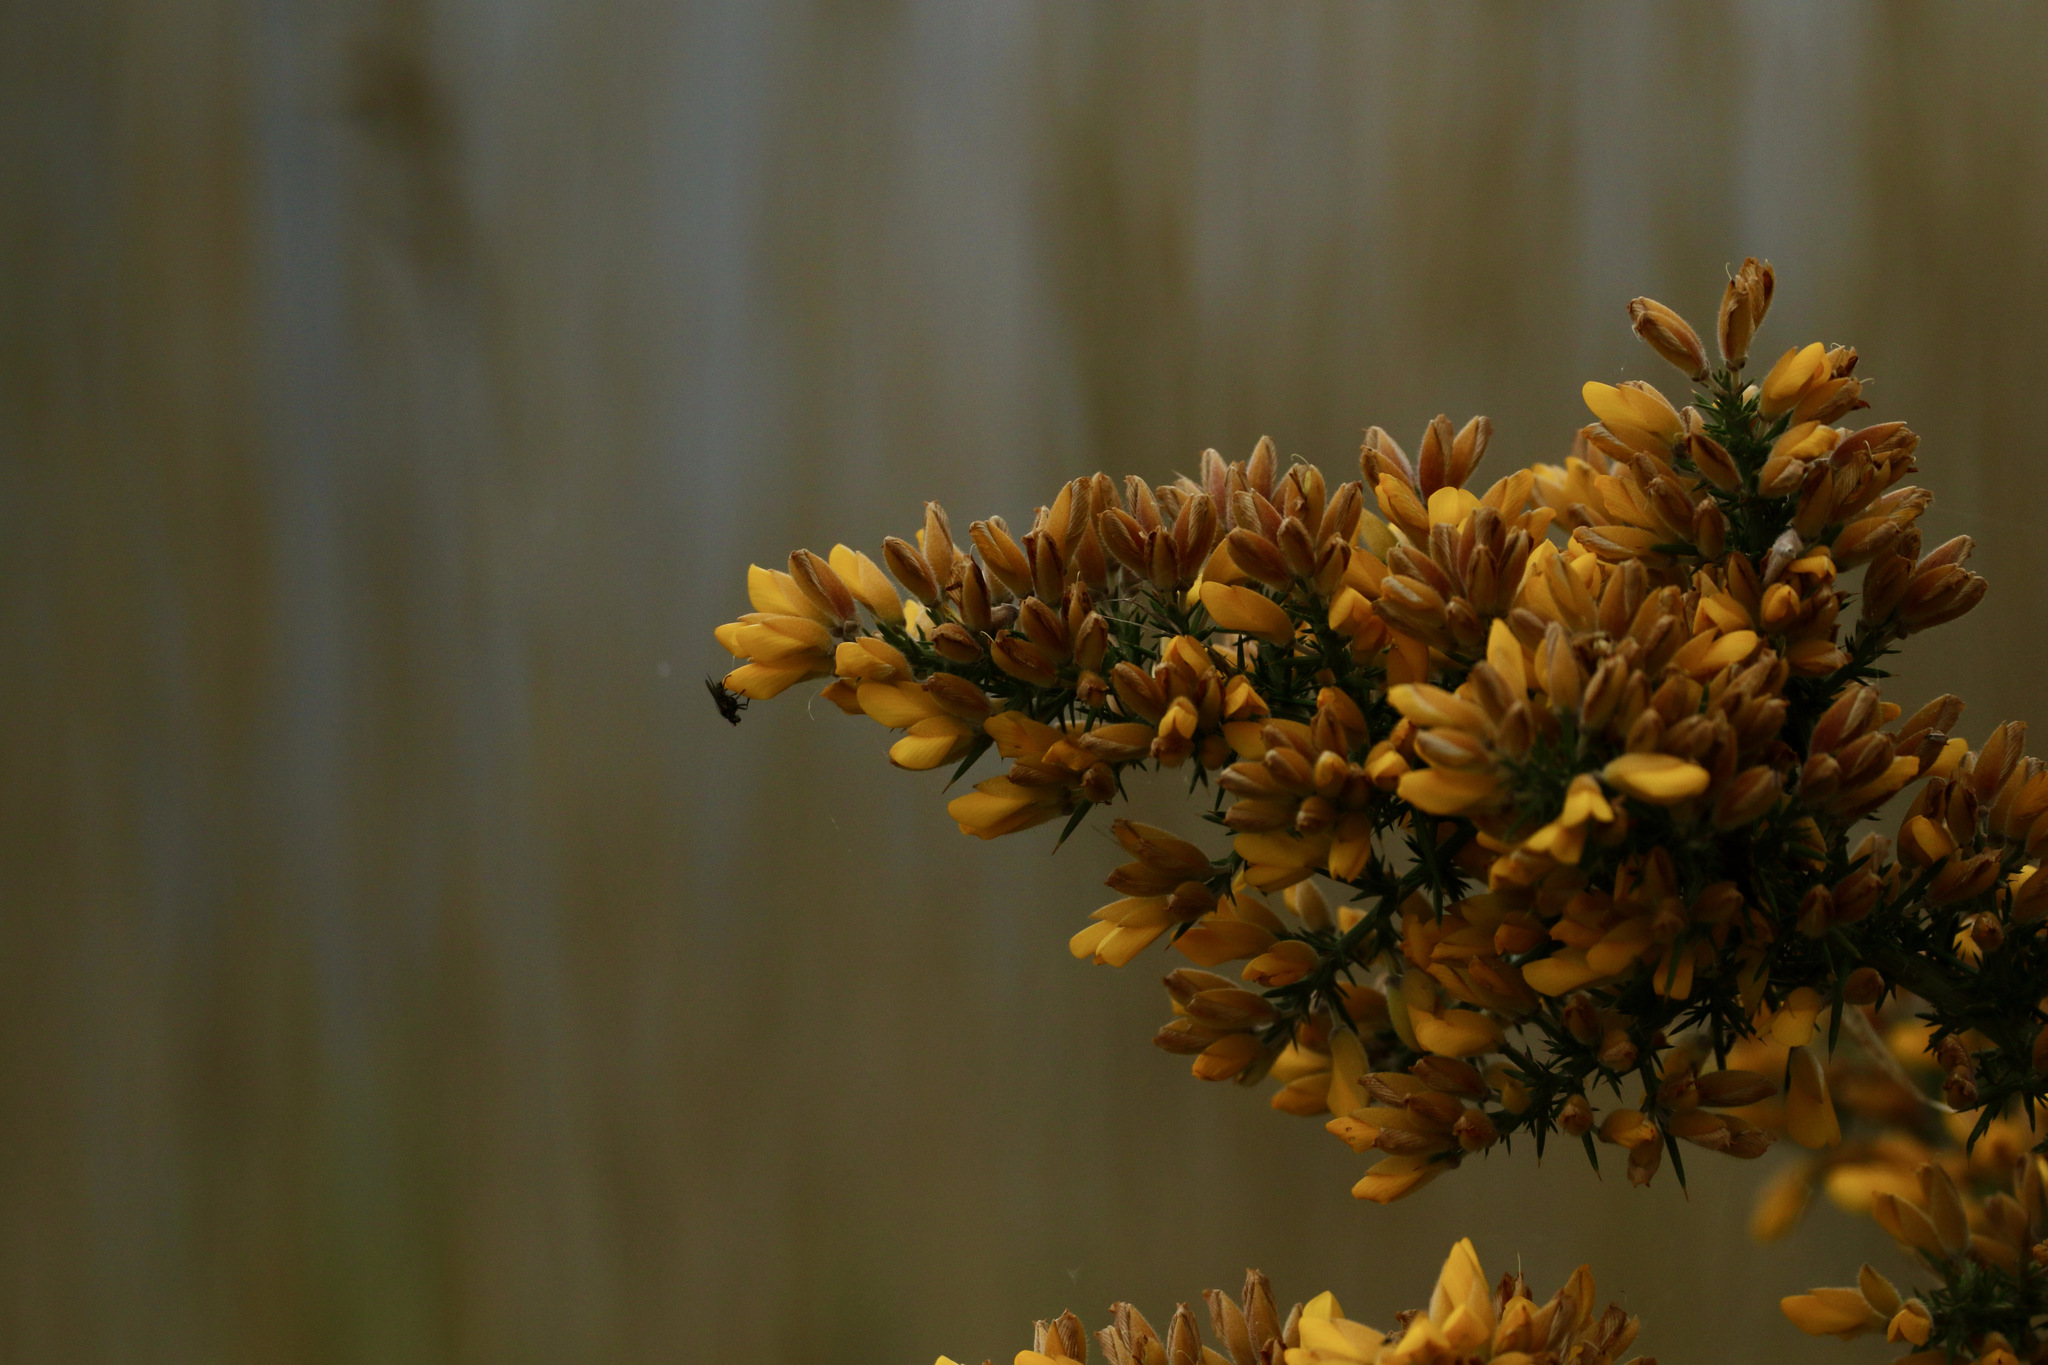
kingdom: Plantae
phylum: Tracheophyta
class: Magnoliopsida
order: Fabales
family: Fabaceae
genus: Ulex
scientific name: Ulex europaeus
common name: Common gorse
